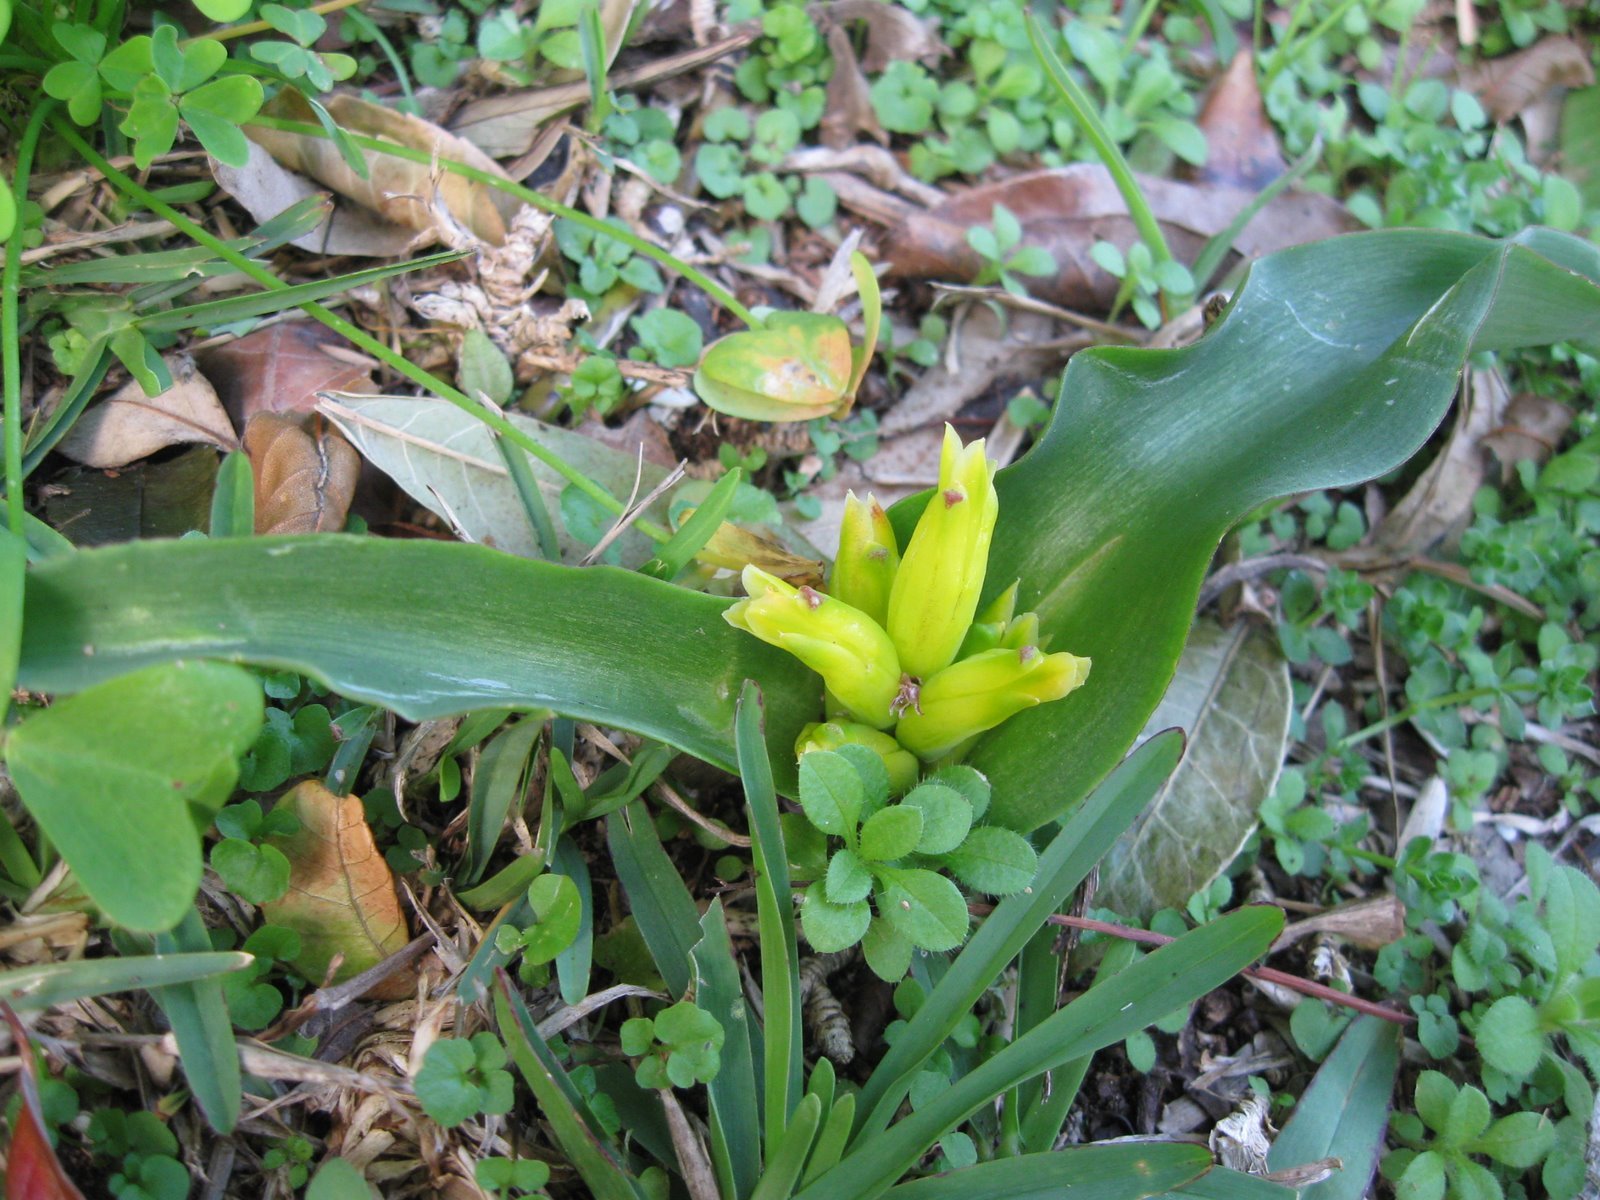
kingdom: Plantae
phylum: Tracheophyta
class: Liliopsida
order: Asparagales
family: Asparagaceae
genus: Lachenalia
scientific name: Lachenalia reflexa
